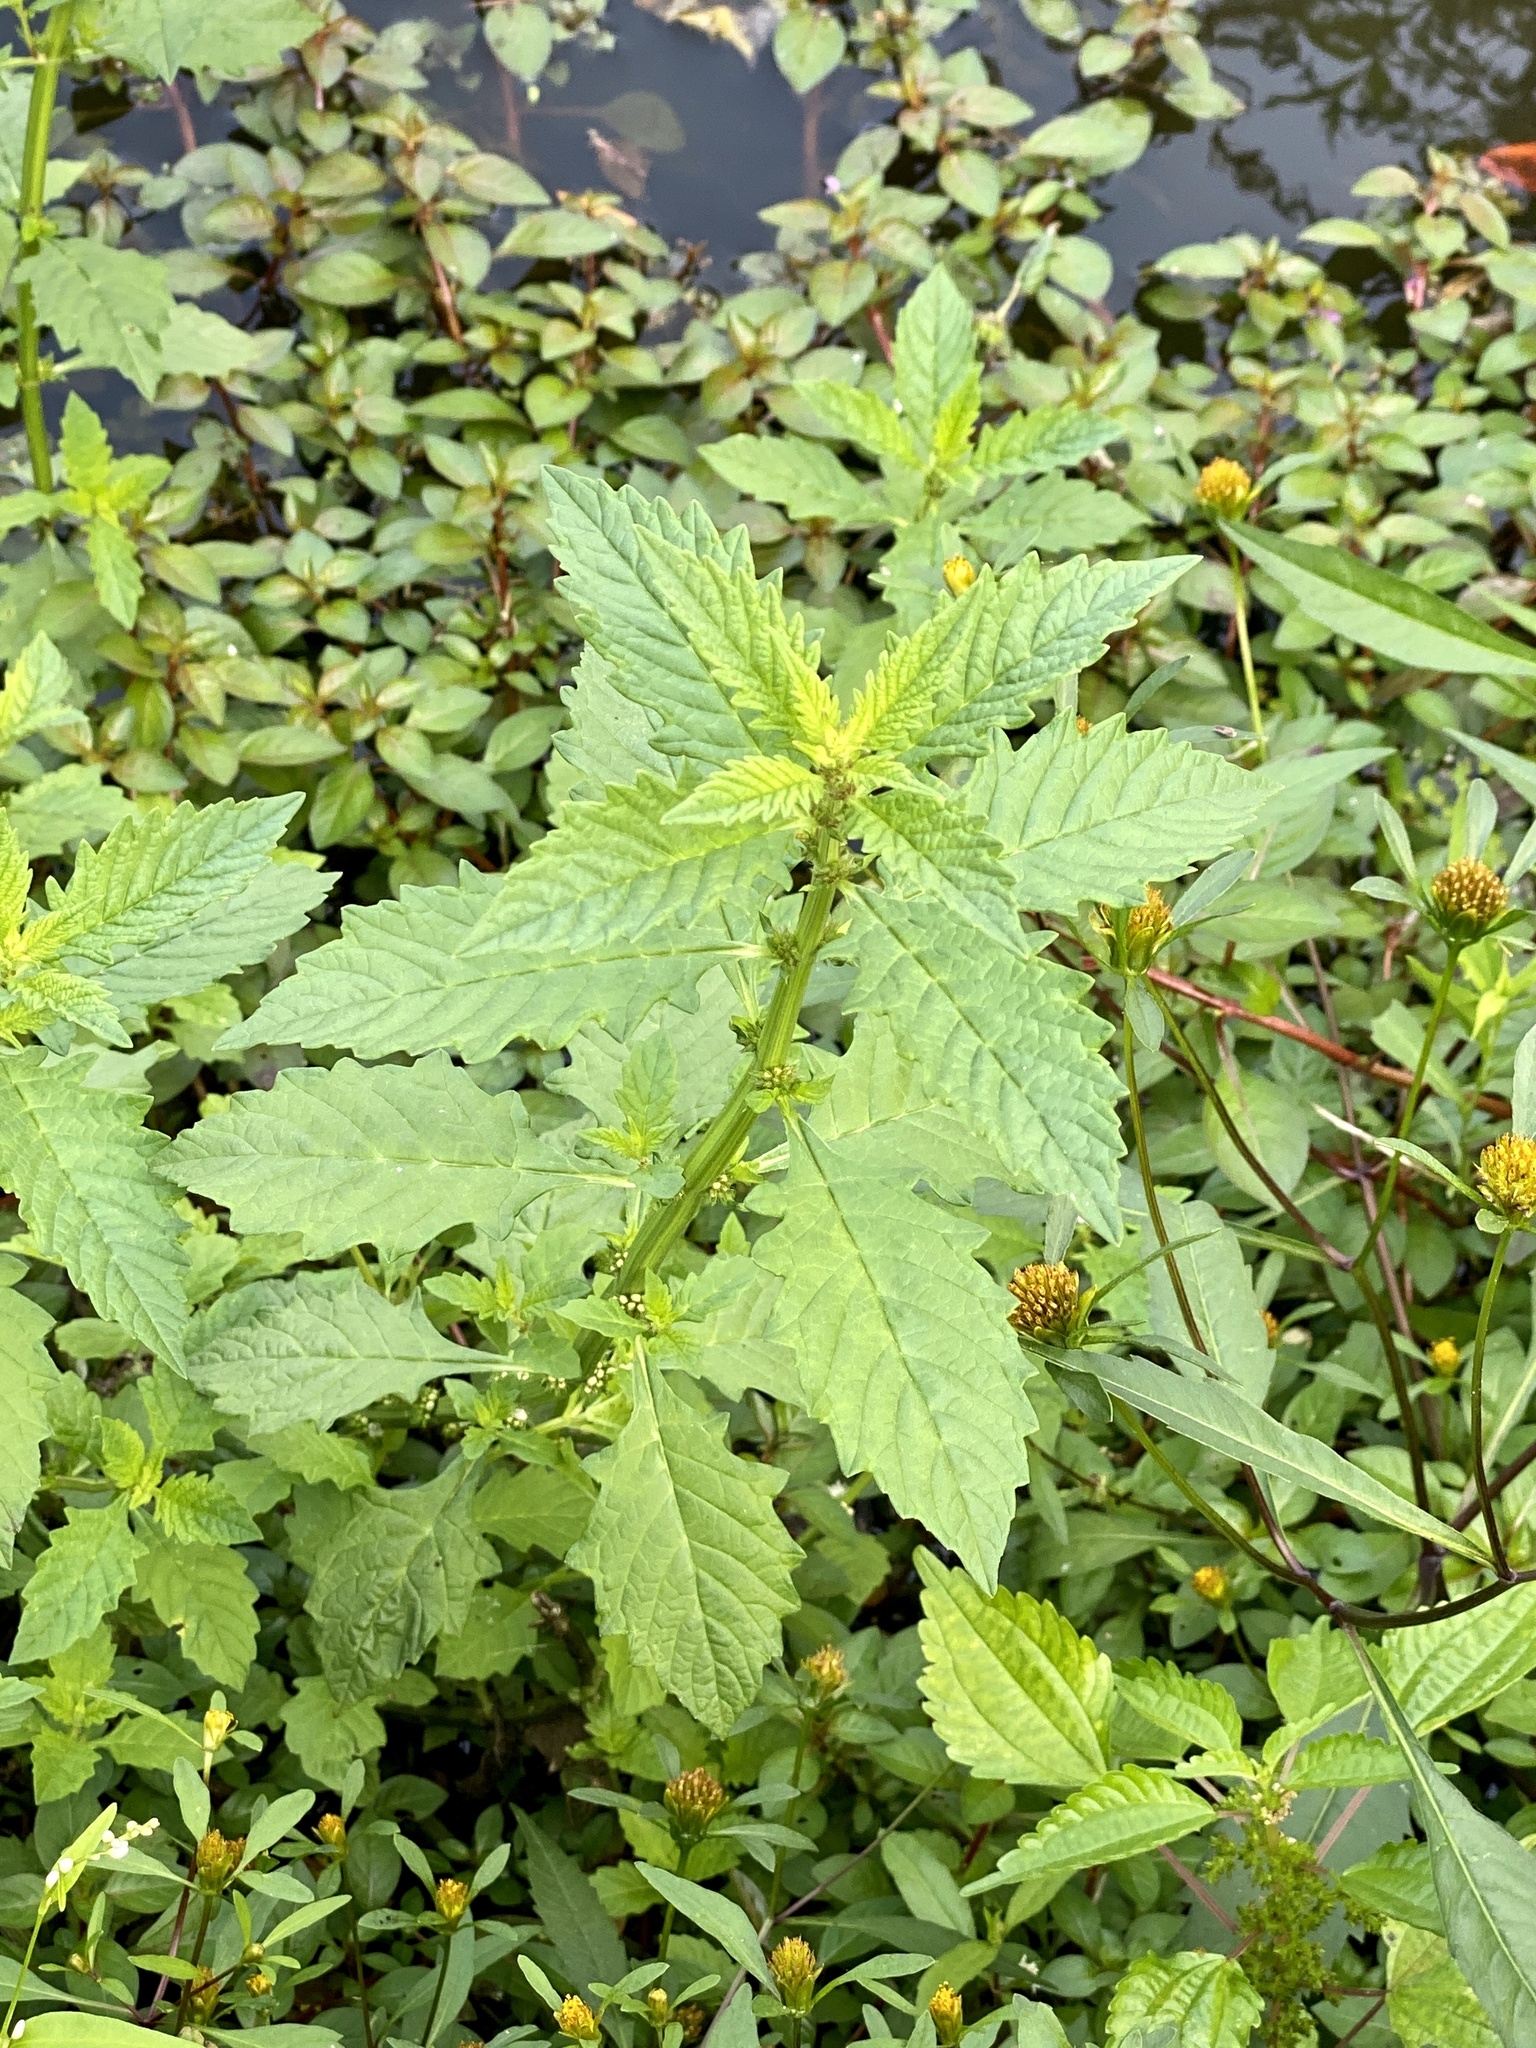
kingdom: Plantae
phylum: Tracheophyta
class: Magnoliopsida
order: Lamiales
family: Lamiaceae
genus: Lycopus
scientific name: Lycopus europaeus
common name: European bugleweed
